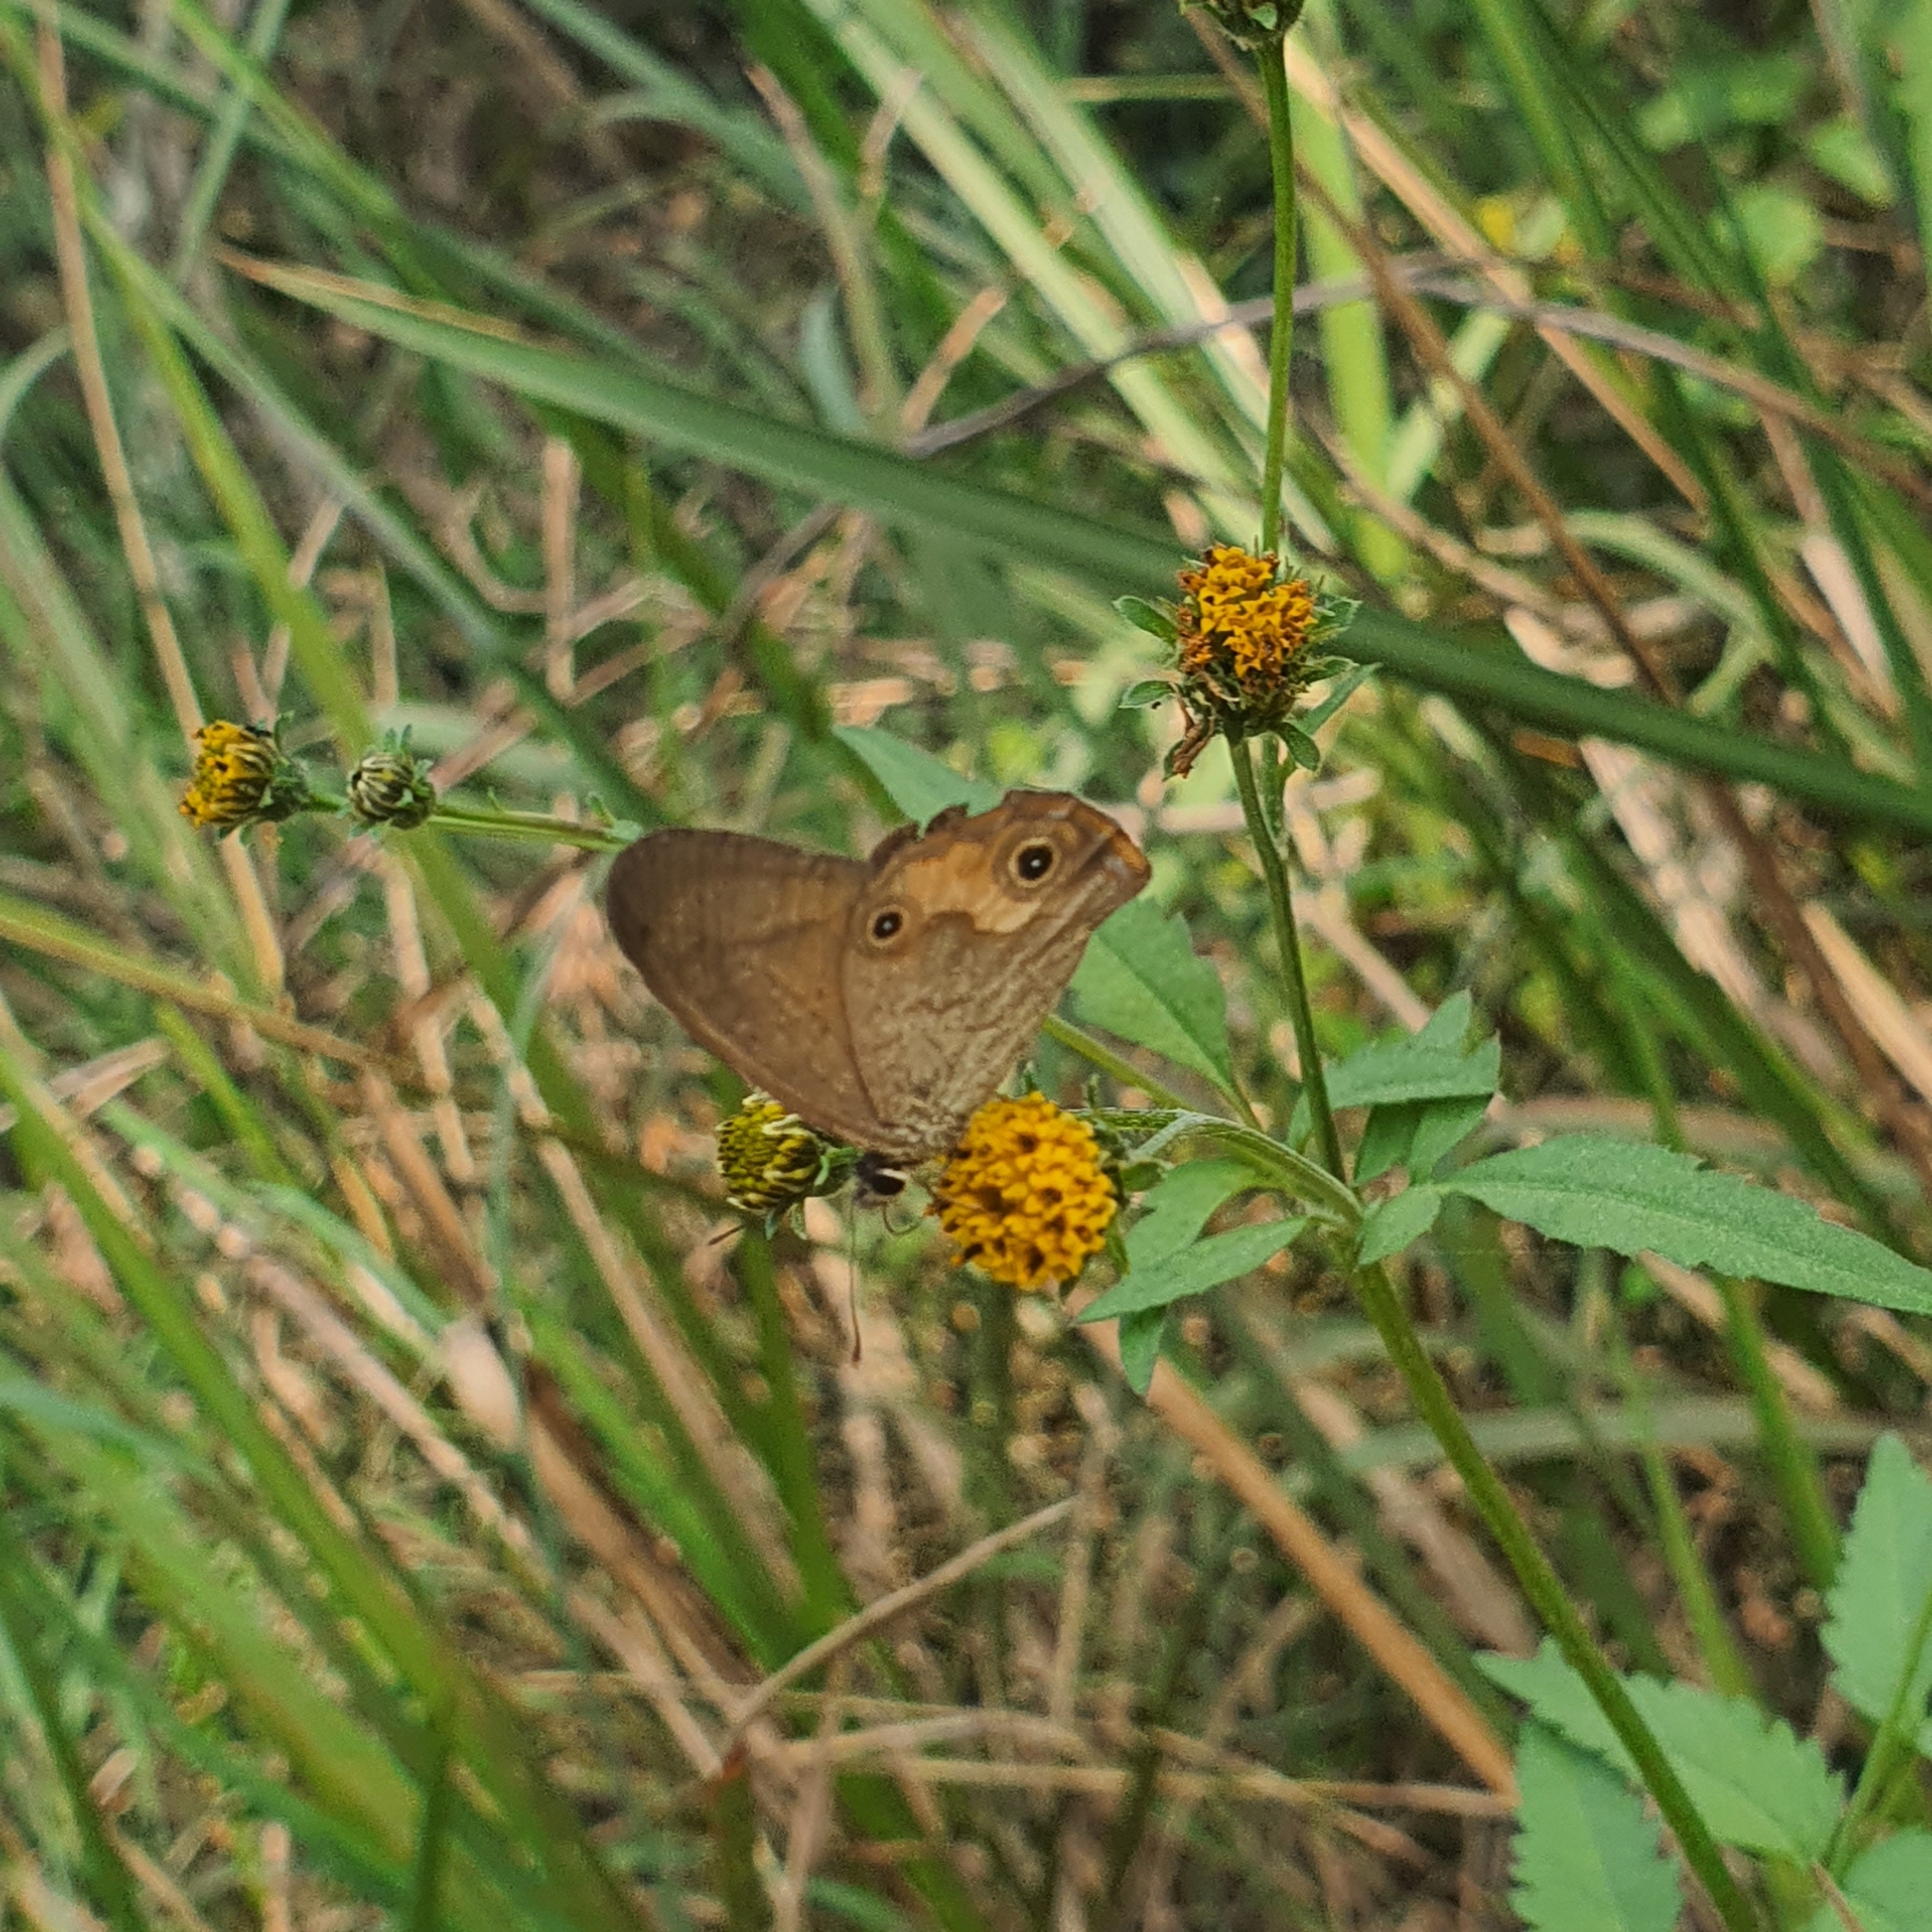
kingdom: Animalia
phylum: Arthropoda
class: Insecta
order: Lepidoptera
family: Nymphalidae
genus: Hypocysta
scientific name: Hypocysta metirius
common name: Brown ringlet
